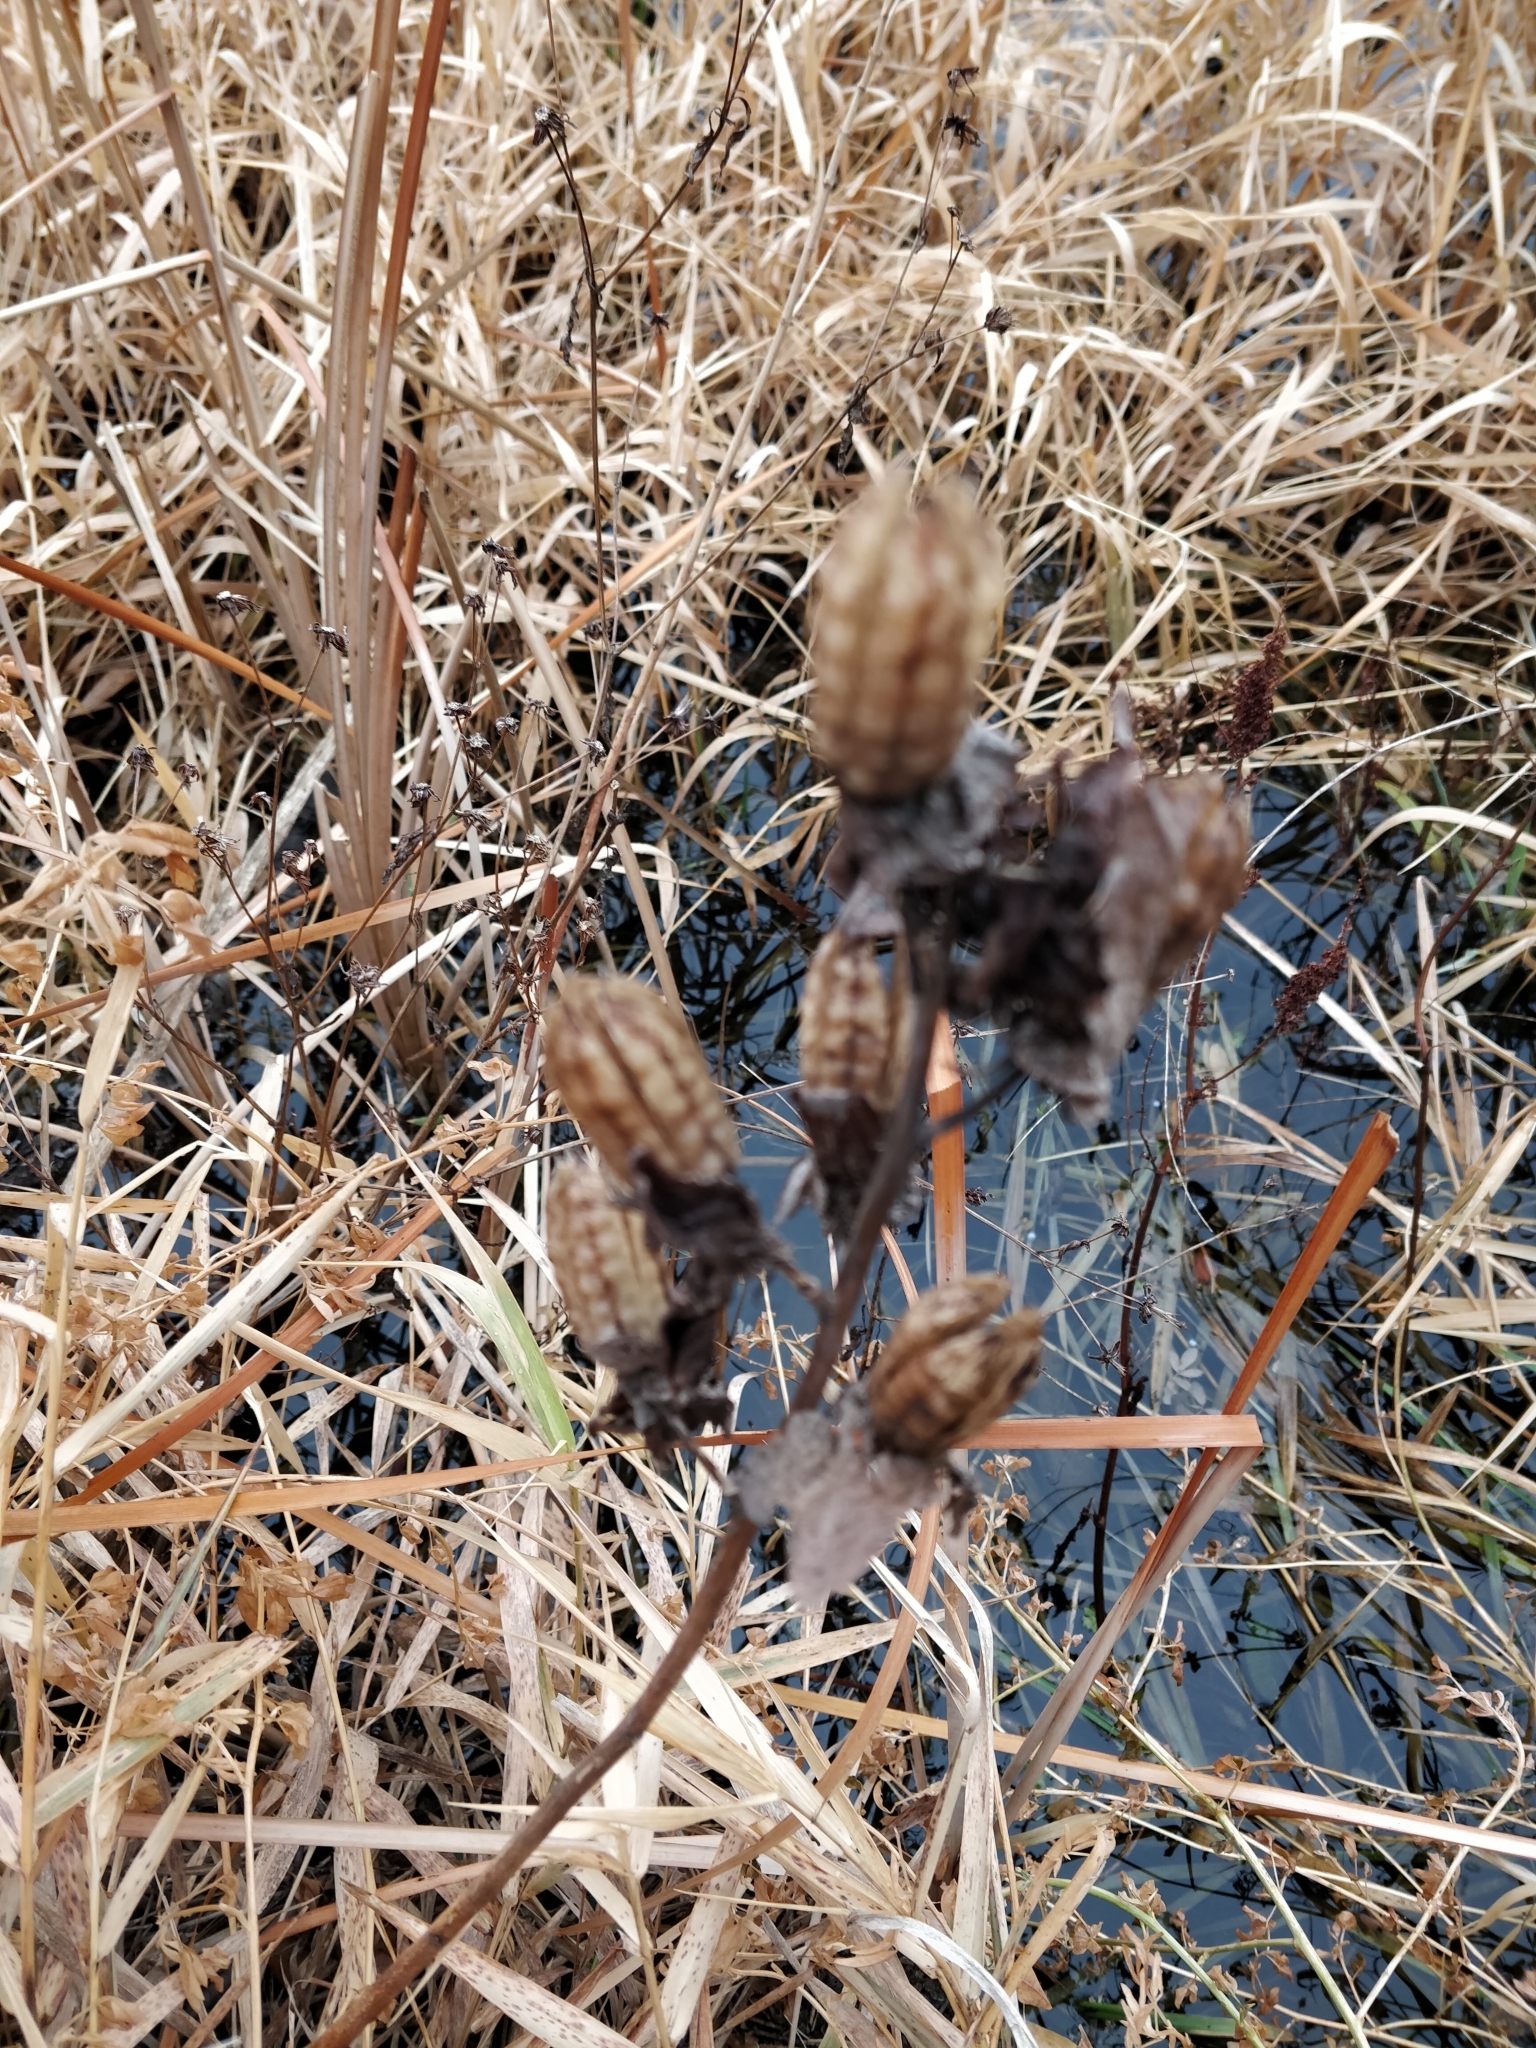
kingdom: Plantae
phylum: Tracheophyta
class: Magnoliopsida
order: Malvales
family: Malvaceae
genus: Hibiscus
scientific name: Hibiscus laevis
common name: Scarlet rose-mallow
